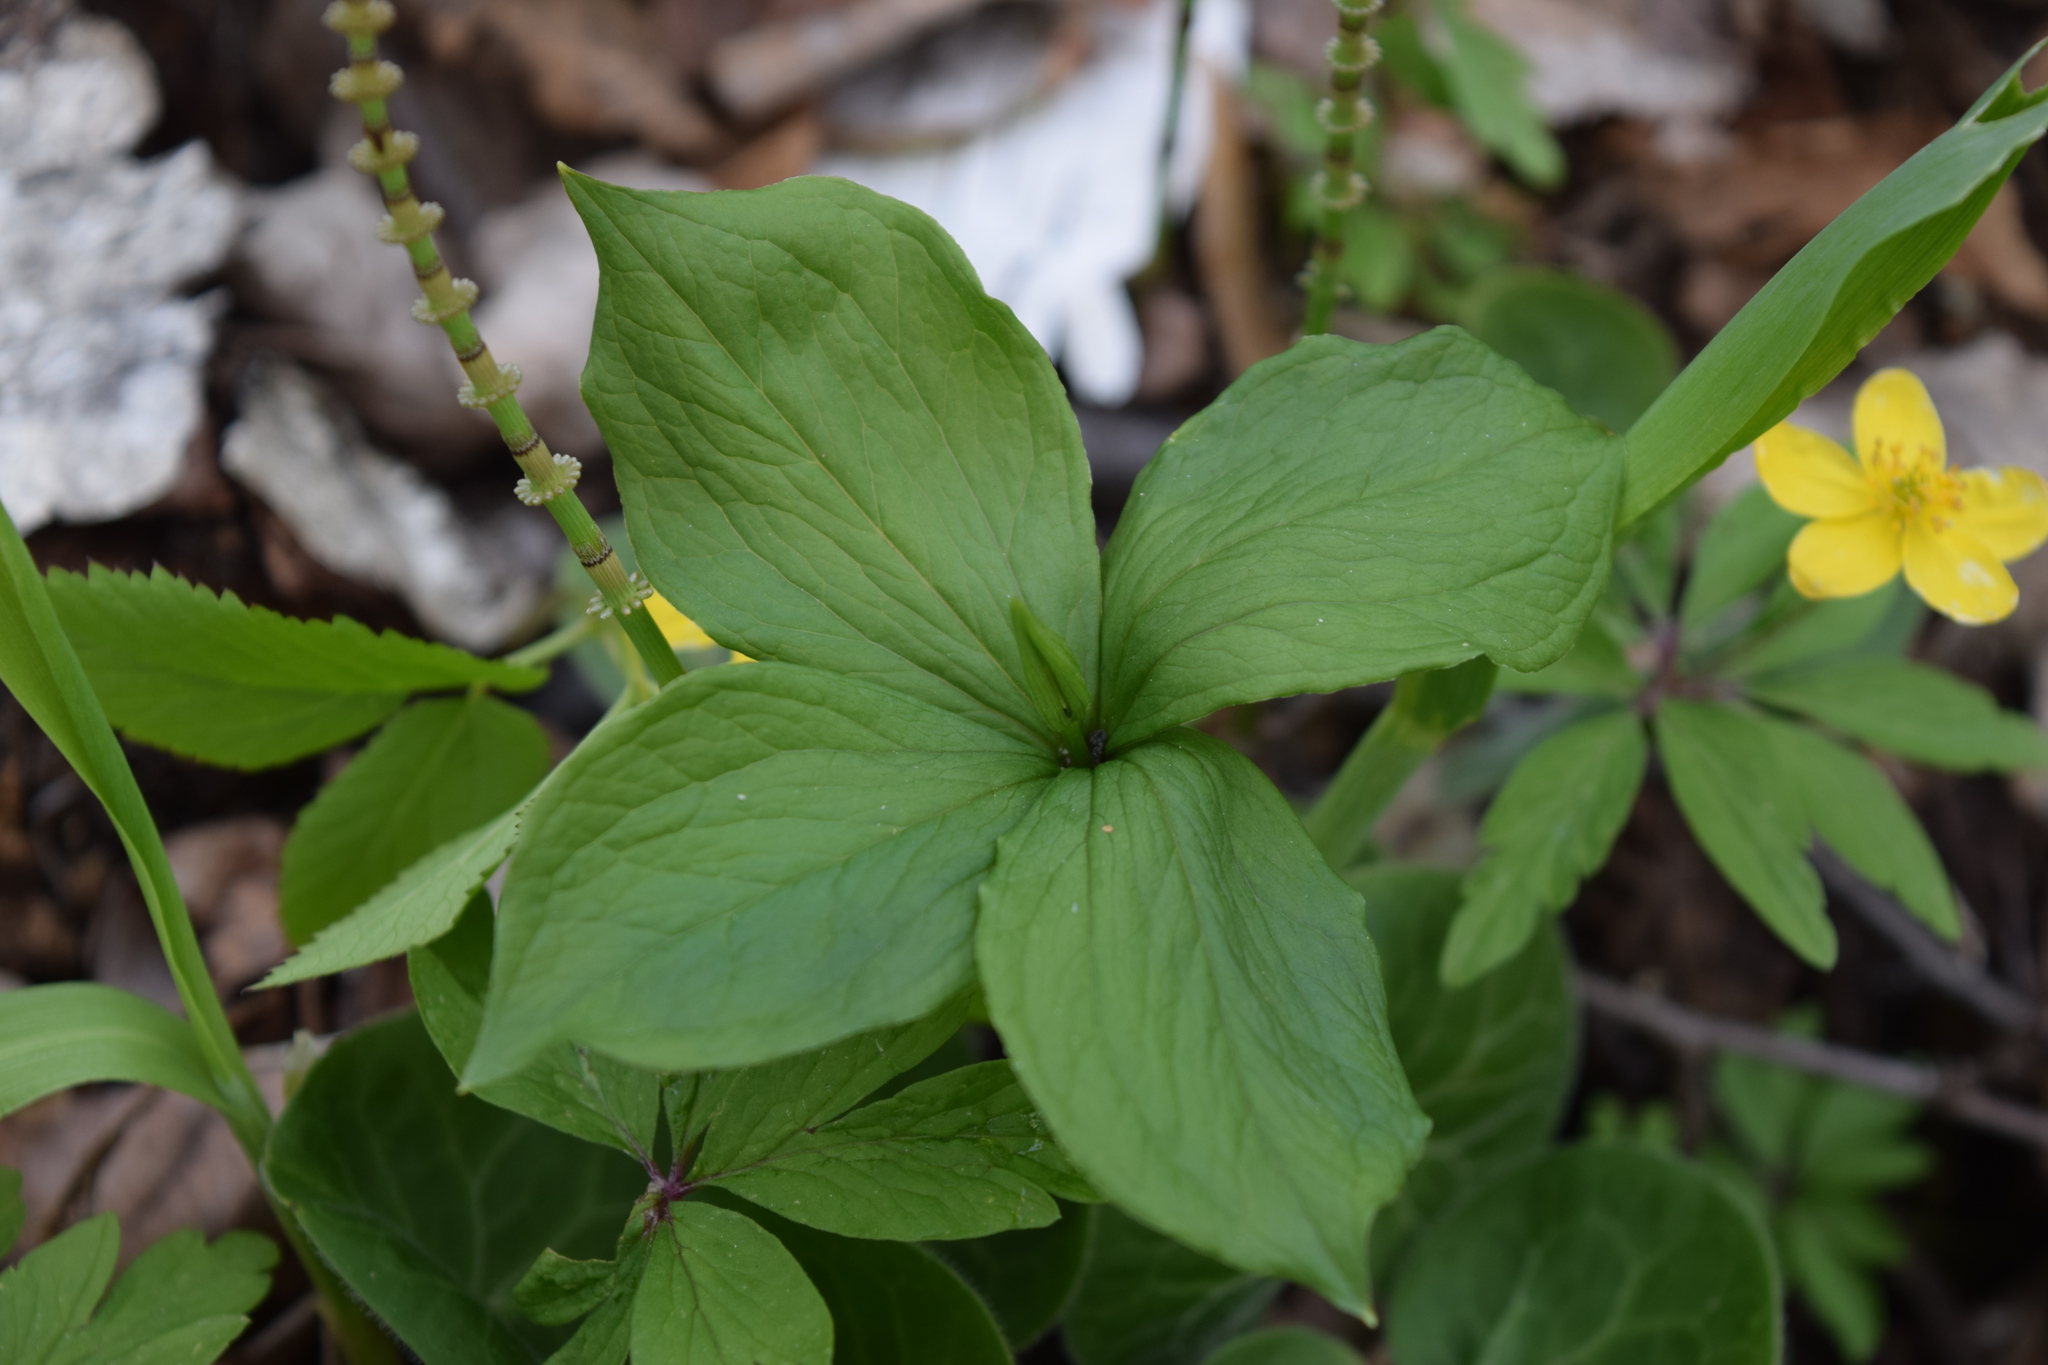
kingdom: Plantae
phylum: Tracheophyta
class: Liliopsida
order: Liliales
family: Melanthiaceae
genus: Paris
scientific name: Paris quadrifolia
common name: Herb-paris
